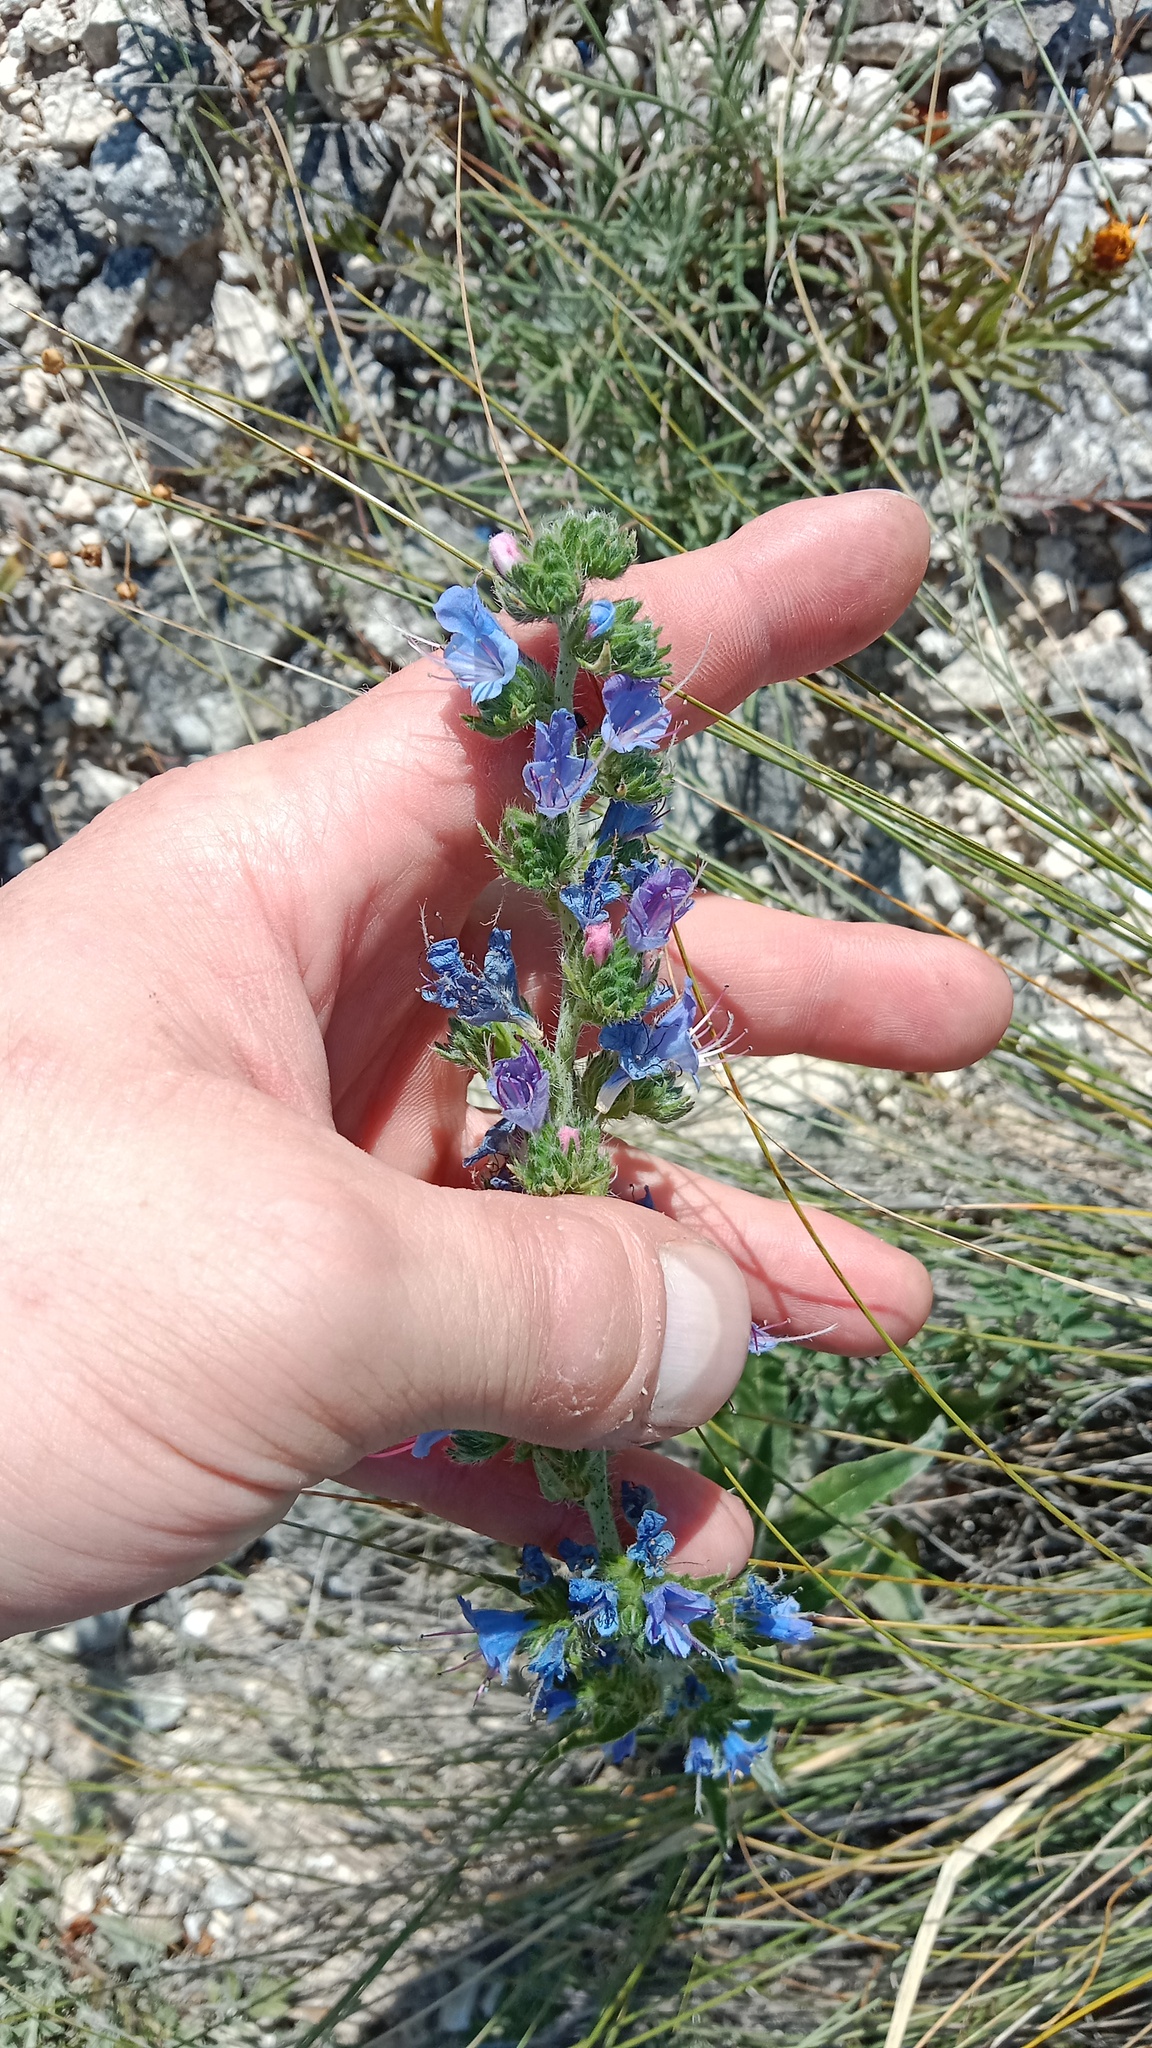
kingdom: Plantae
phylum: Tracheophyta
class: Magnoliopsida
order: Boraginales
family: Boraginaceae
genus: Echium
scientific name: Echium vulgare
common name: Common viper's bugloss
